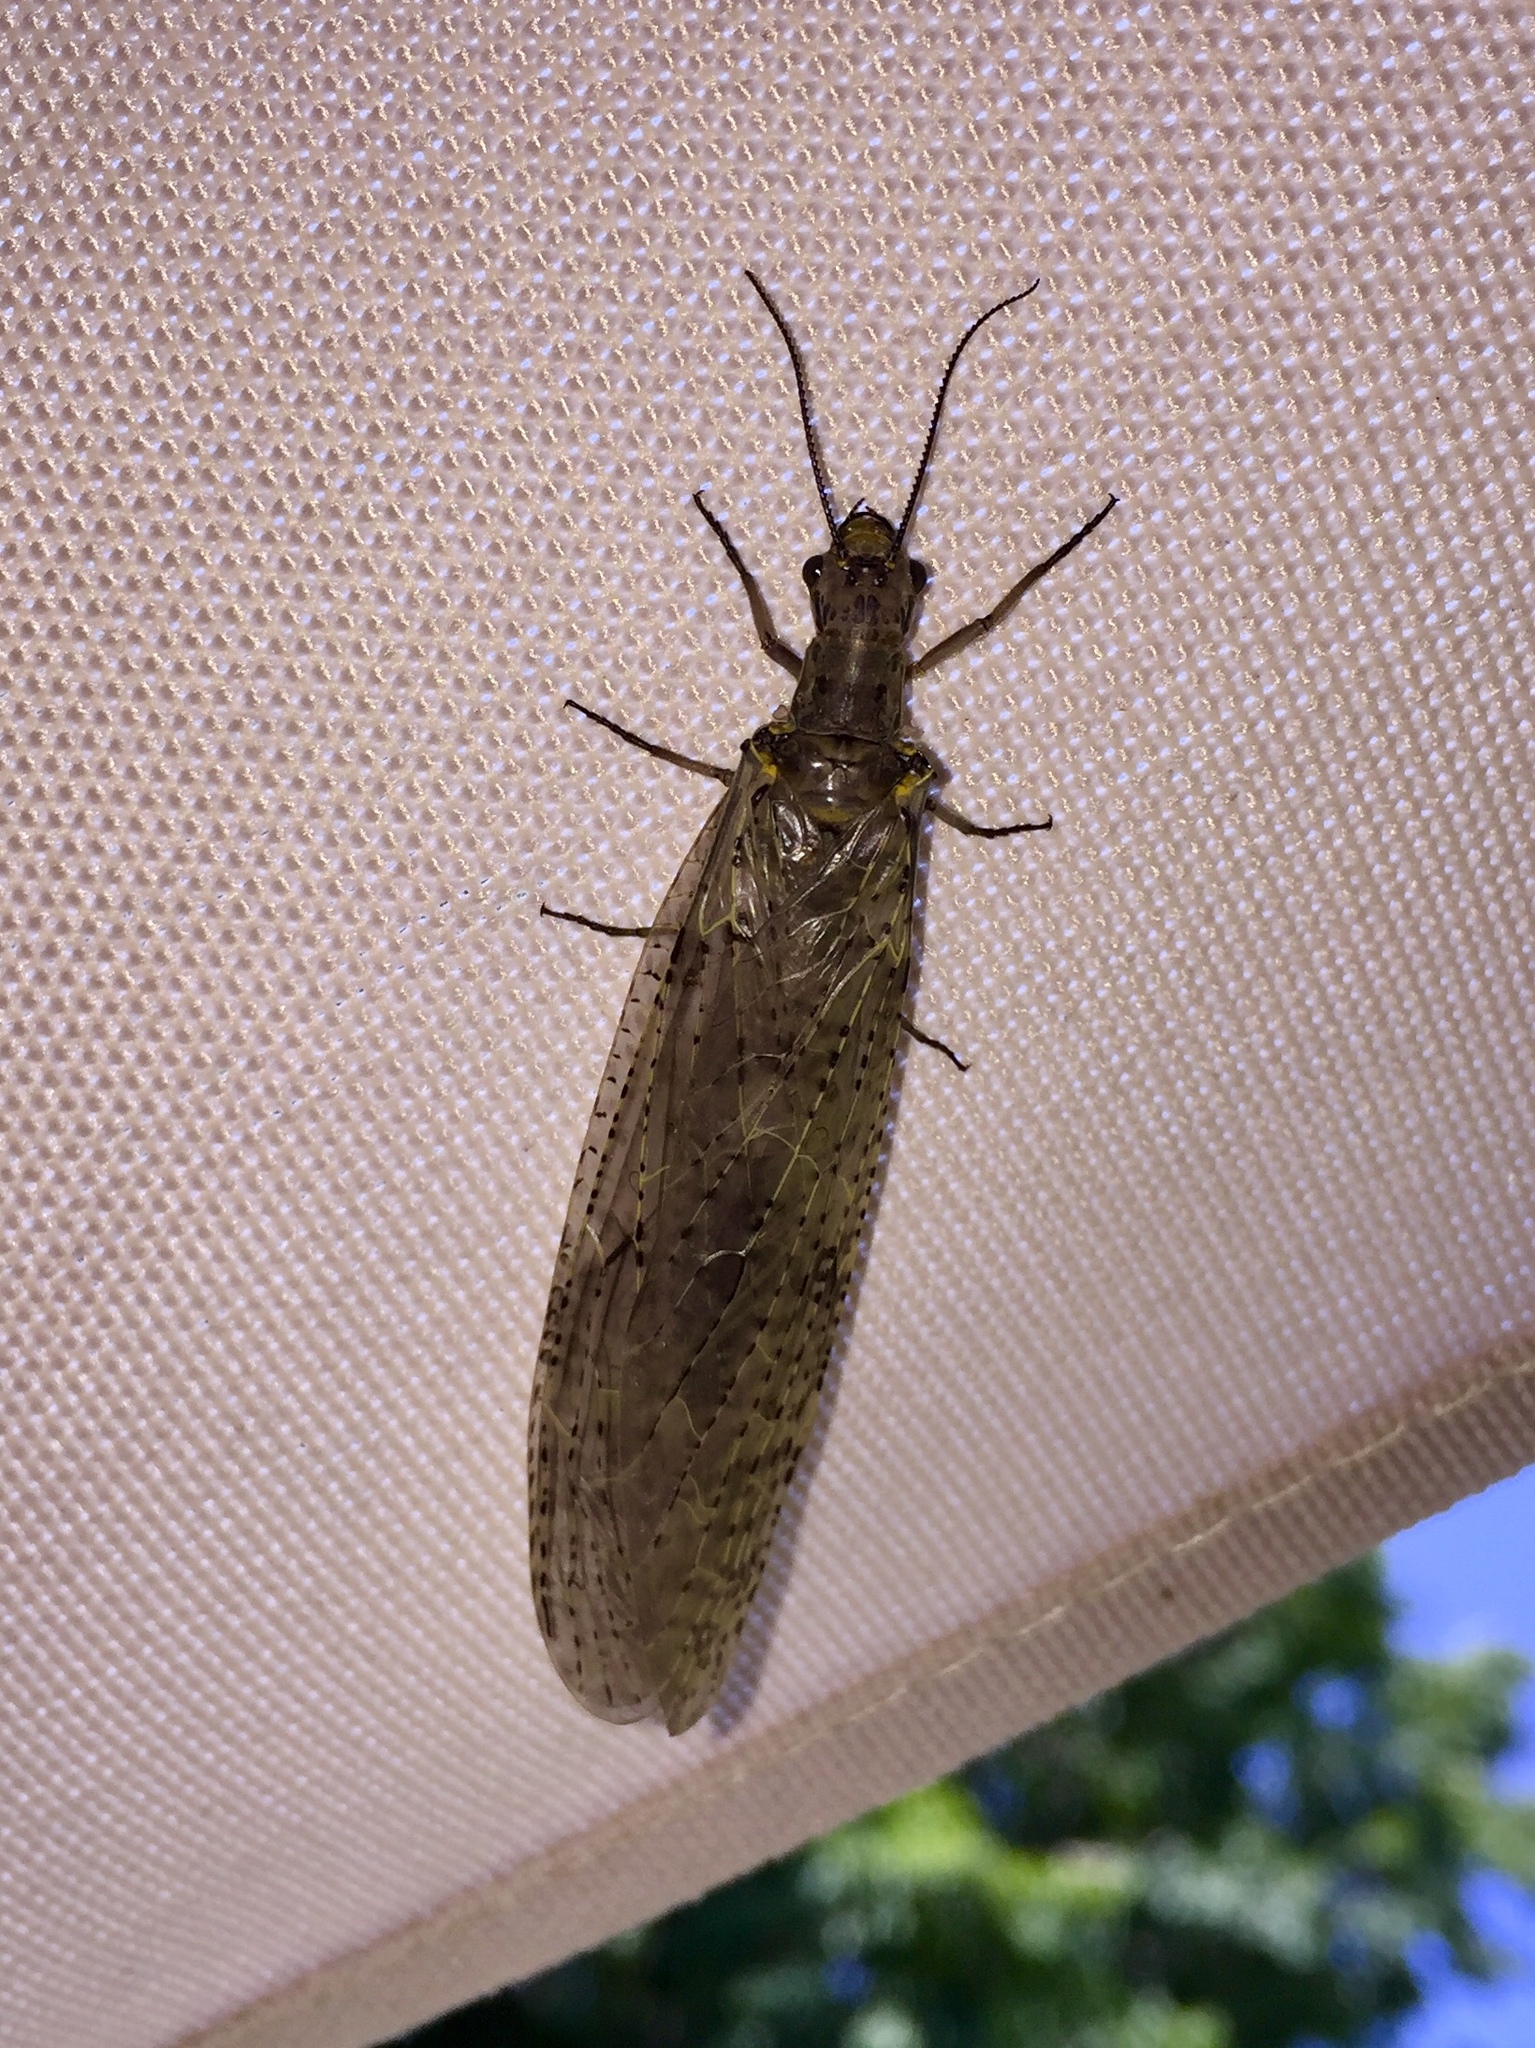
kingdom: Animalia
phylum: Arthropoda
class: Insecta
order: Megaloptera
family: Corydalidae
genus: Chauliodes
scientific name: Chauliodes rastricornis
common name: Spring fishfly
